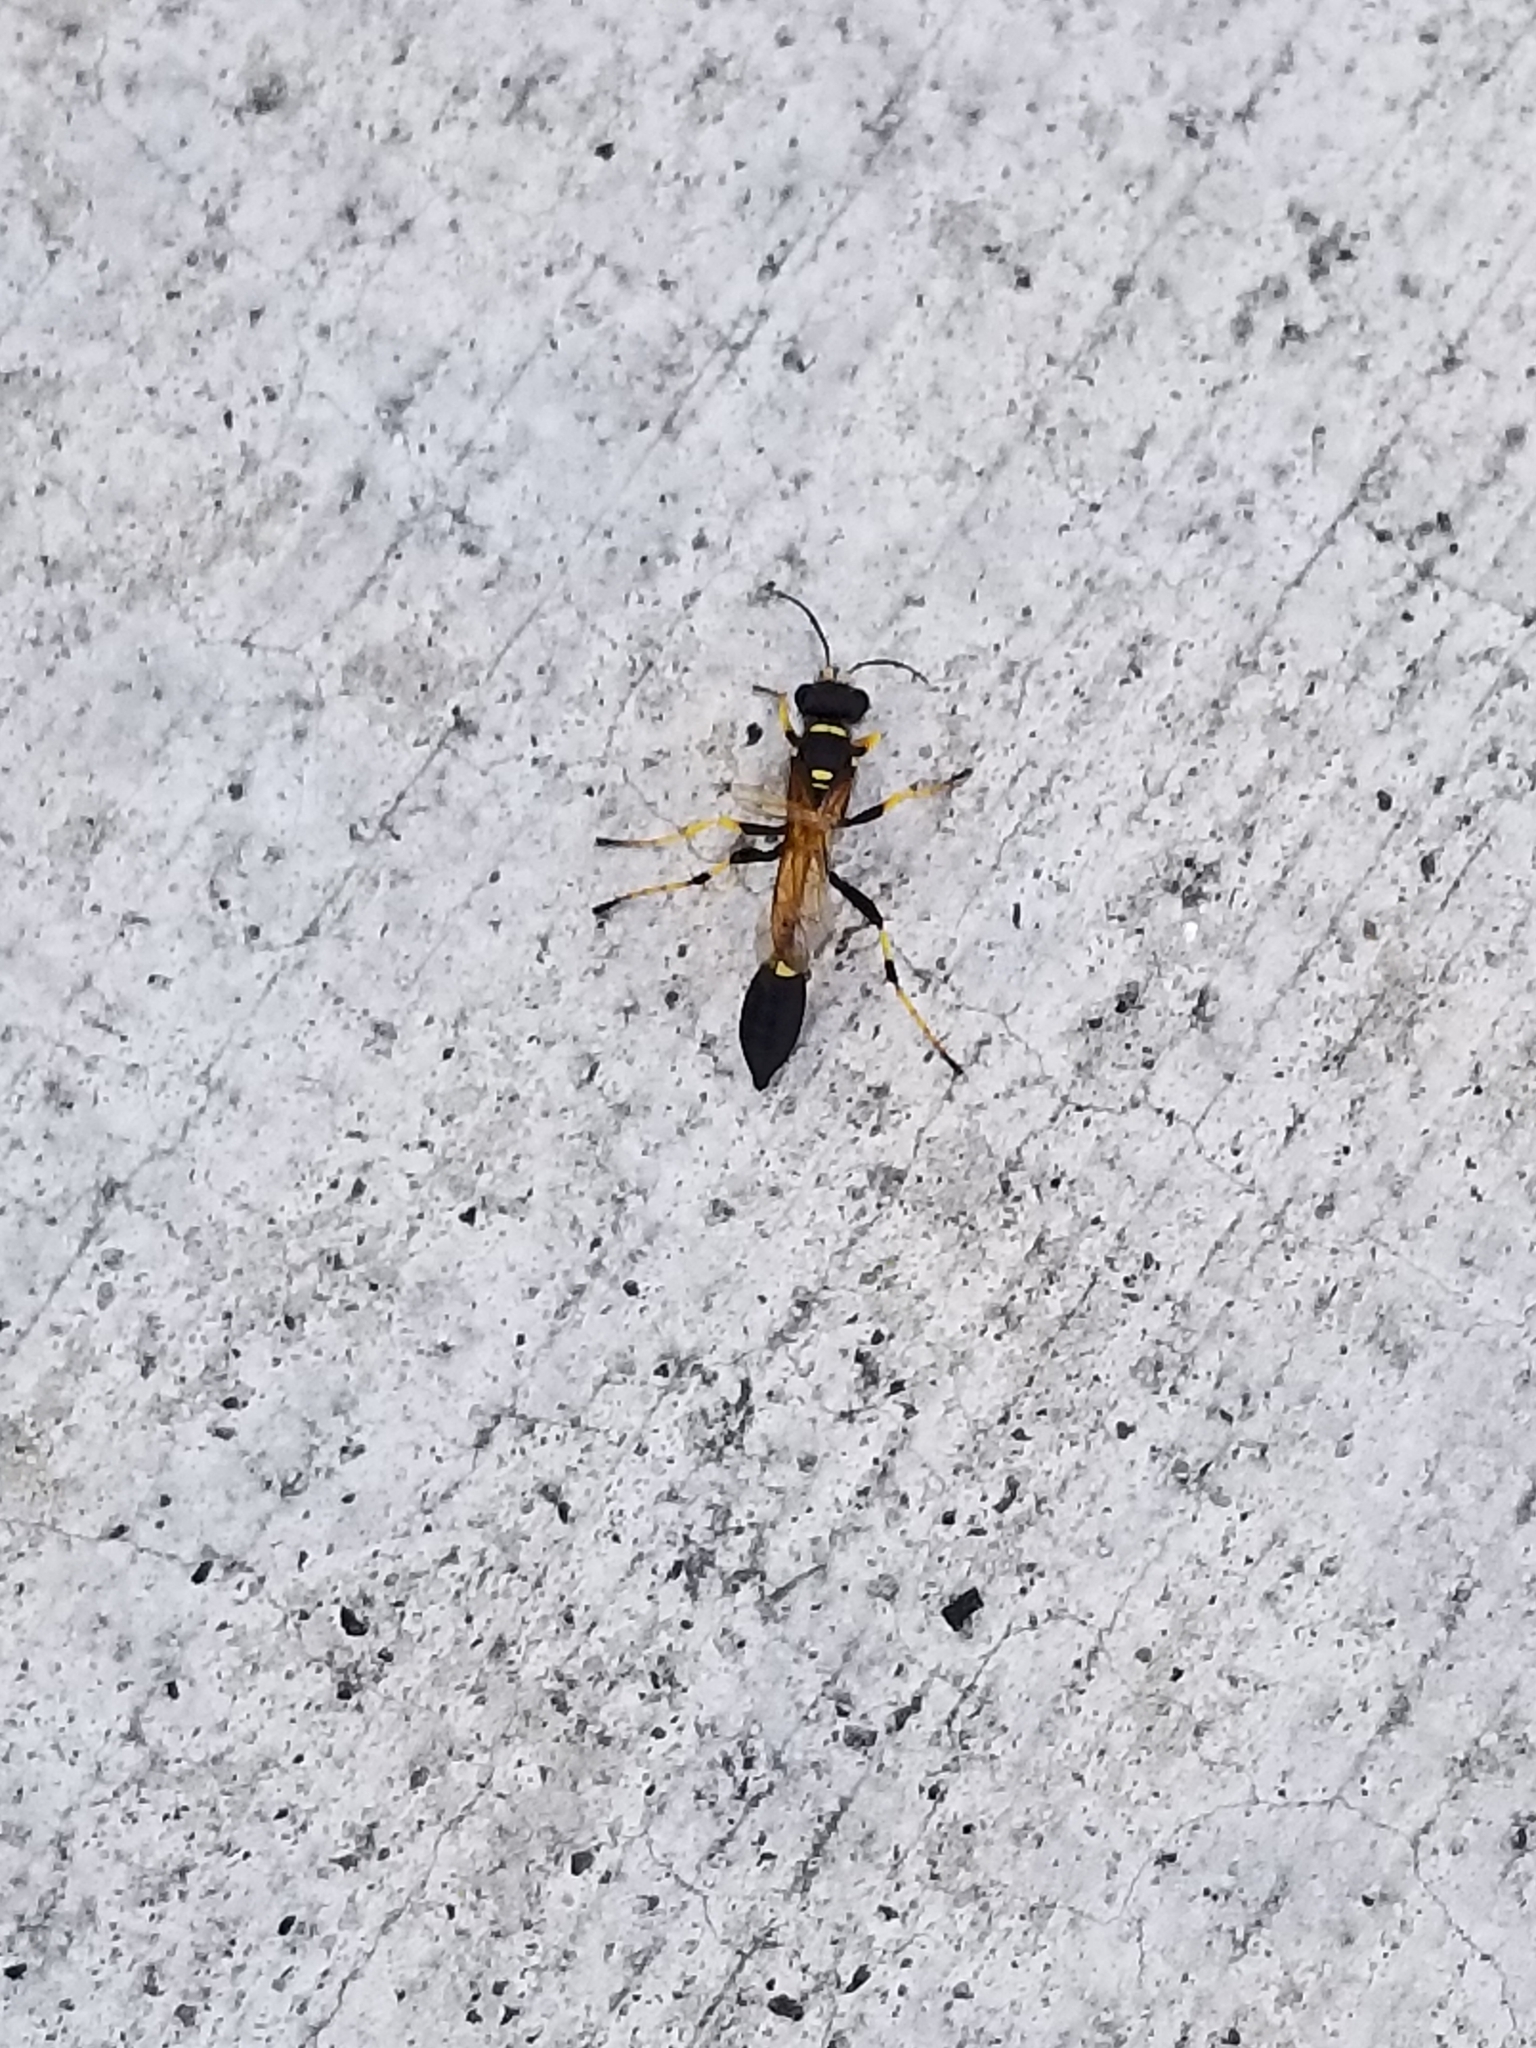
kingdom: Animalia
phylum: Arthropoda
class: Insecta
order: Hymenoptera
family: Sphecidae
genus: Sceliphron
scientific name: Sceliphron caementarium
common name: Mud dauber
